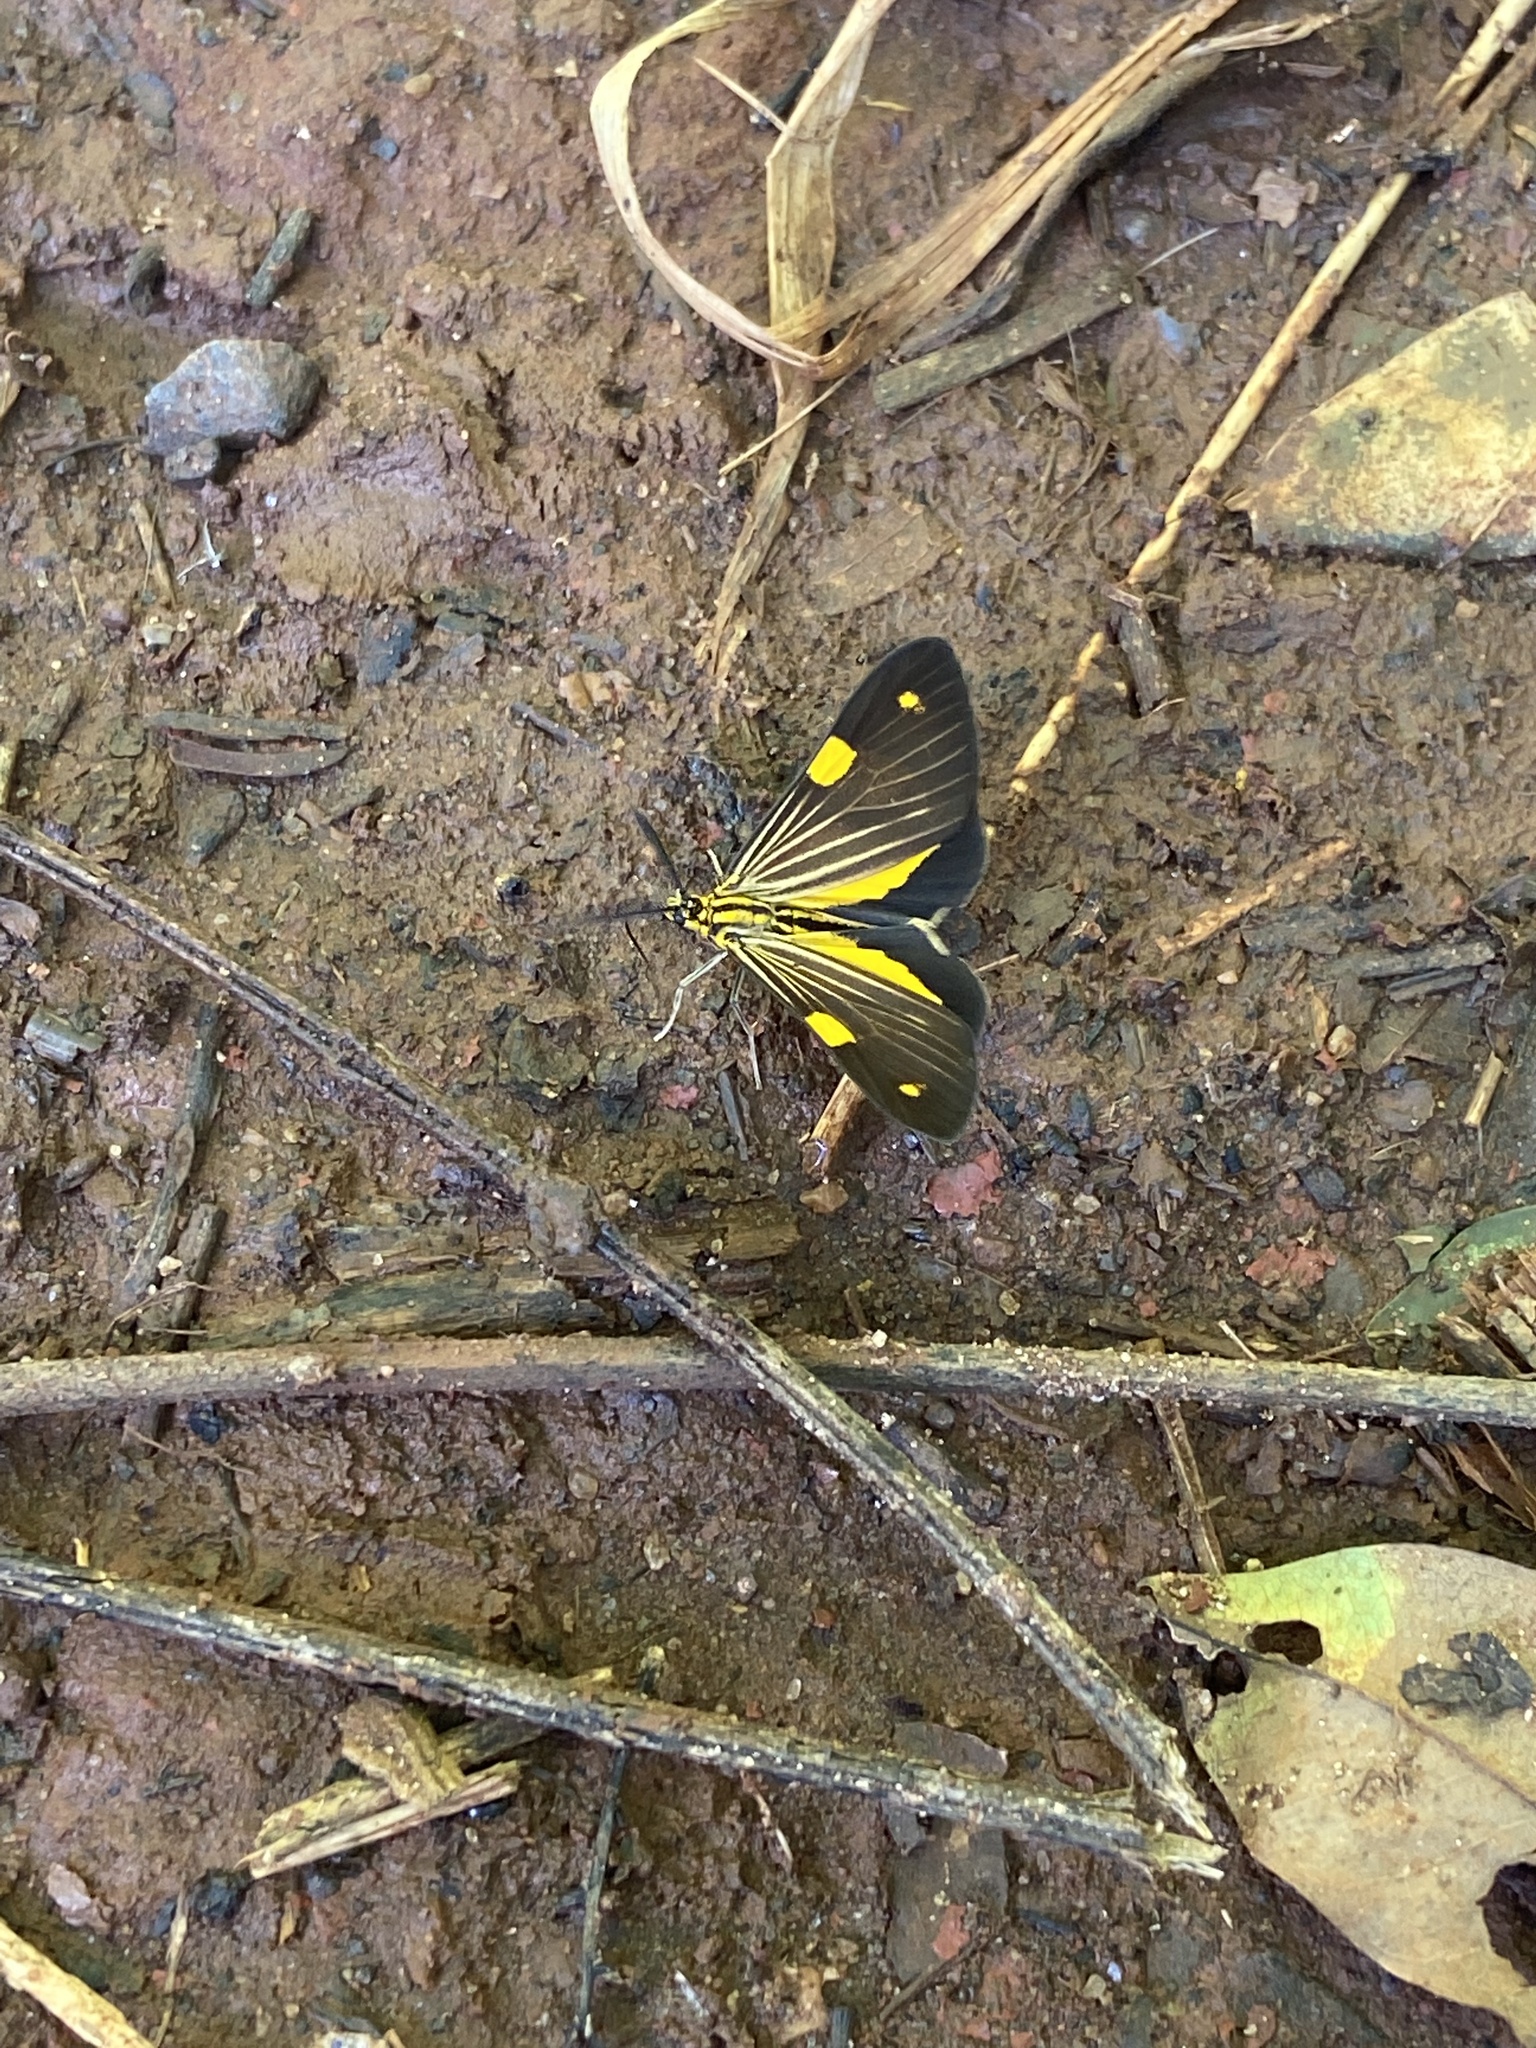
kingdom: Animalia
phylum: Arthropoda
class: Insecta
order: Lepidoptera
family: Notodontidae
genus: Phaeochlaena
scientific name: Phaeochlaena
